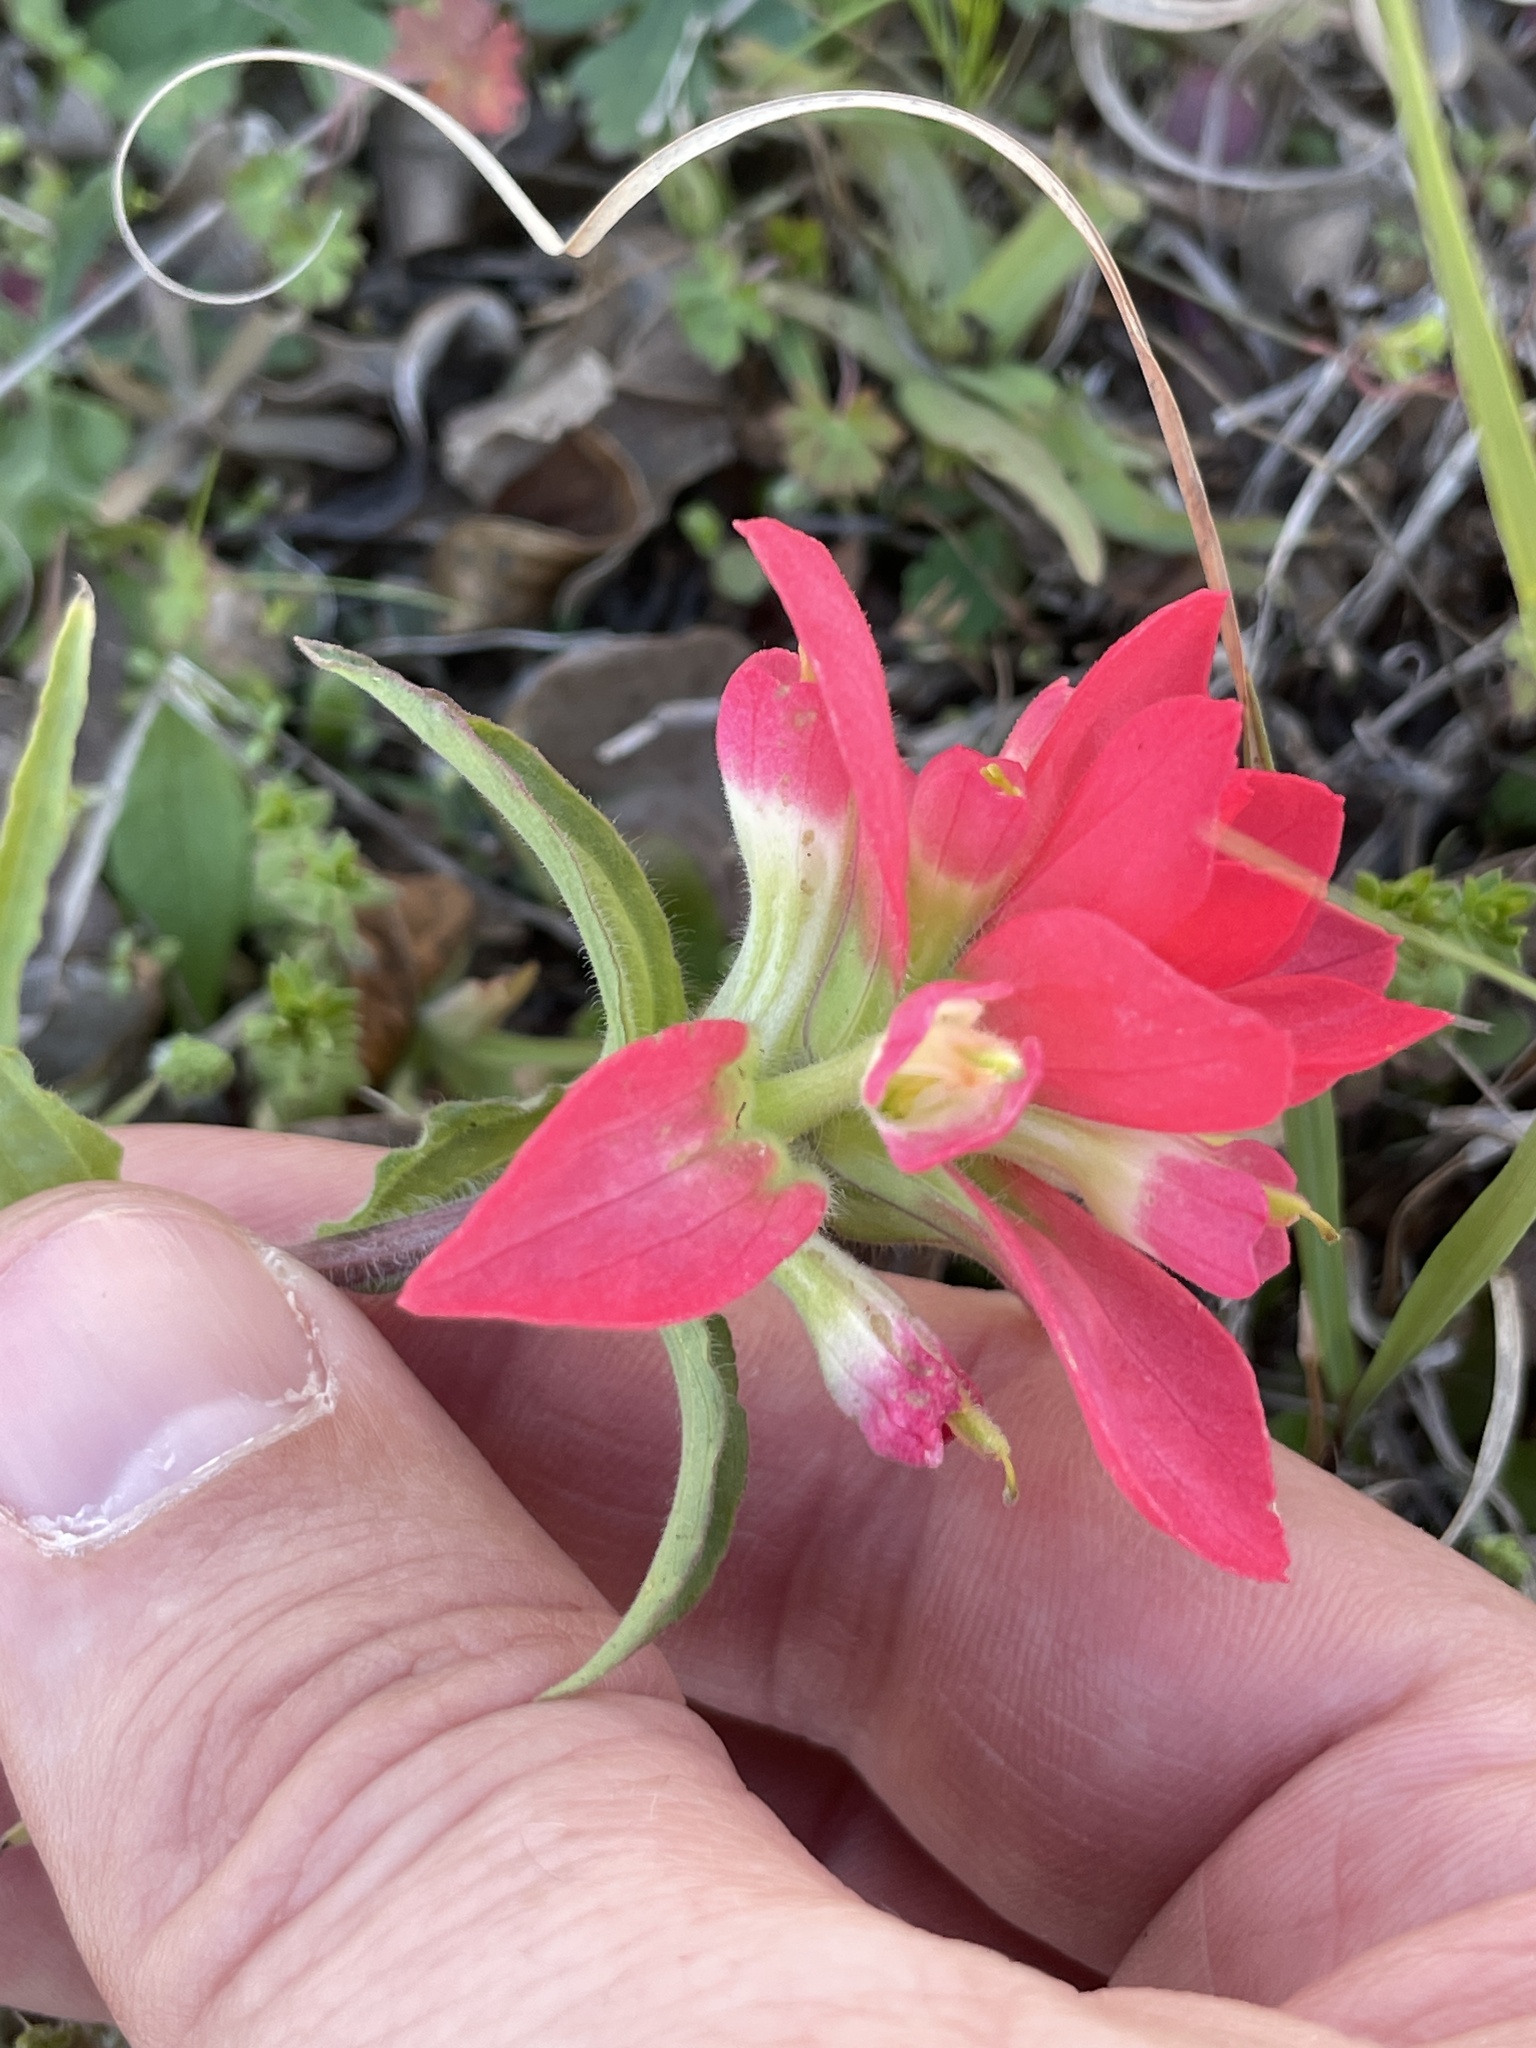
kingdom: Plantae
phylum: Tracheophyta
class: Magnoliopsida
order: Lamiales
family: Orobanchaceae
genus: Castilleja
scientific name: Castilleja indivisa
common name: Texas paintbrush
